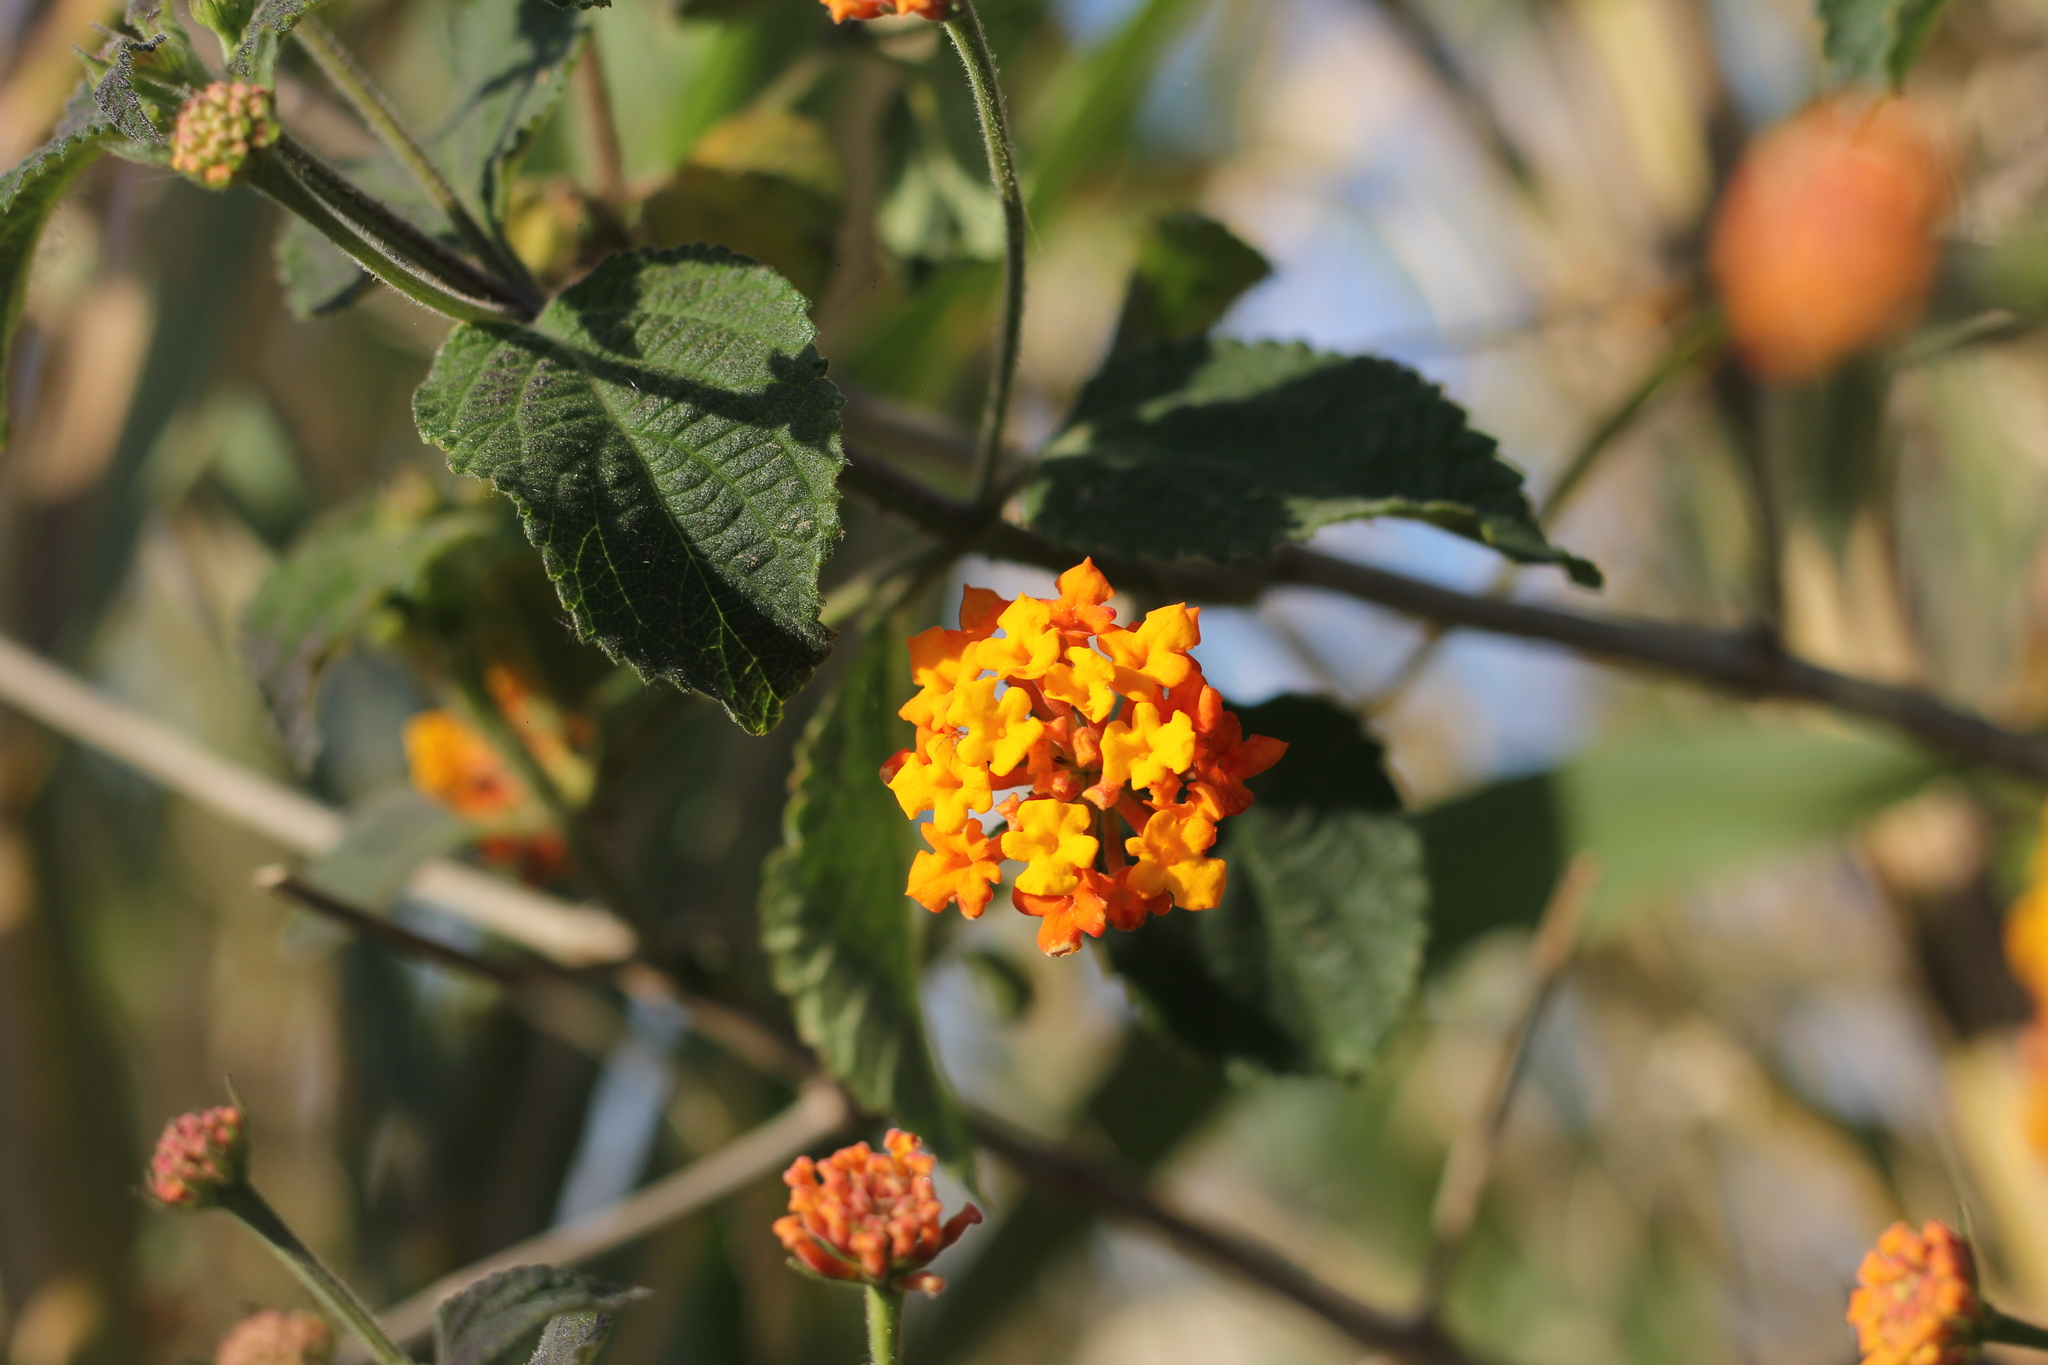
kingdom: Plantae
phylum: Tracheophyta
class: Magnoliopsida
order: Lamiales
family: Verbenaceae
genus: Lantana
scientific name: Lantana camara
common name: Lantana
